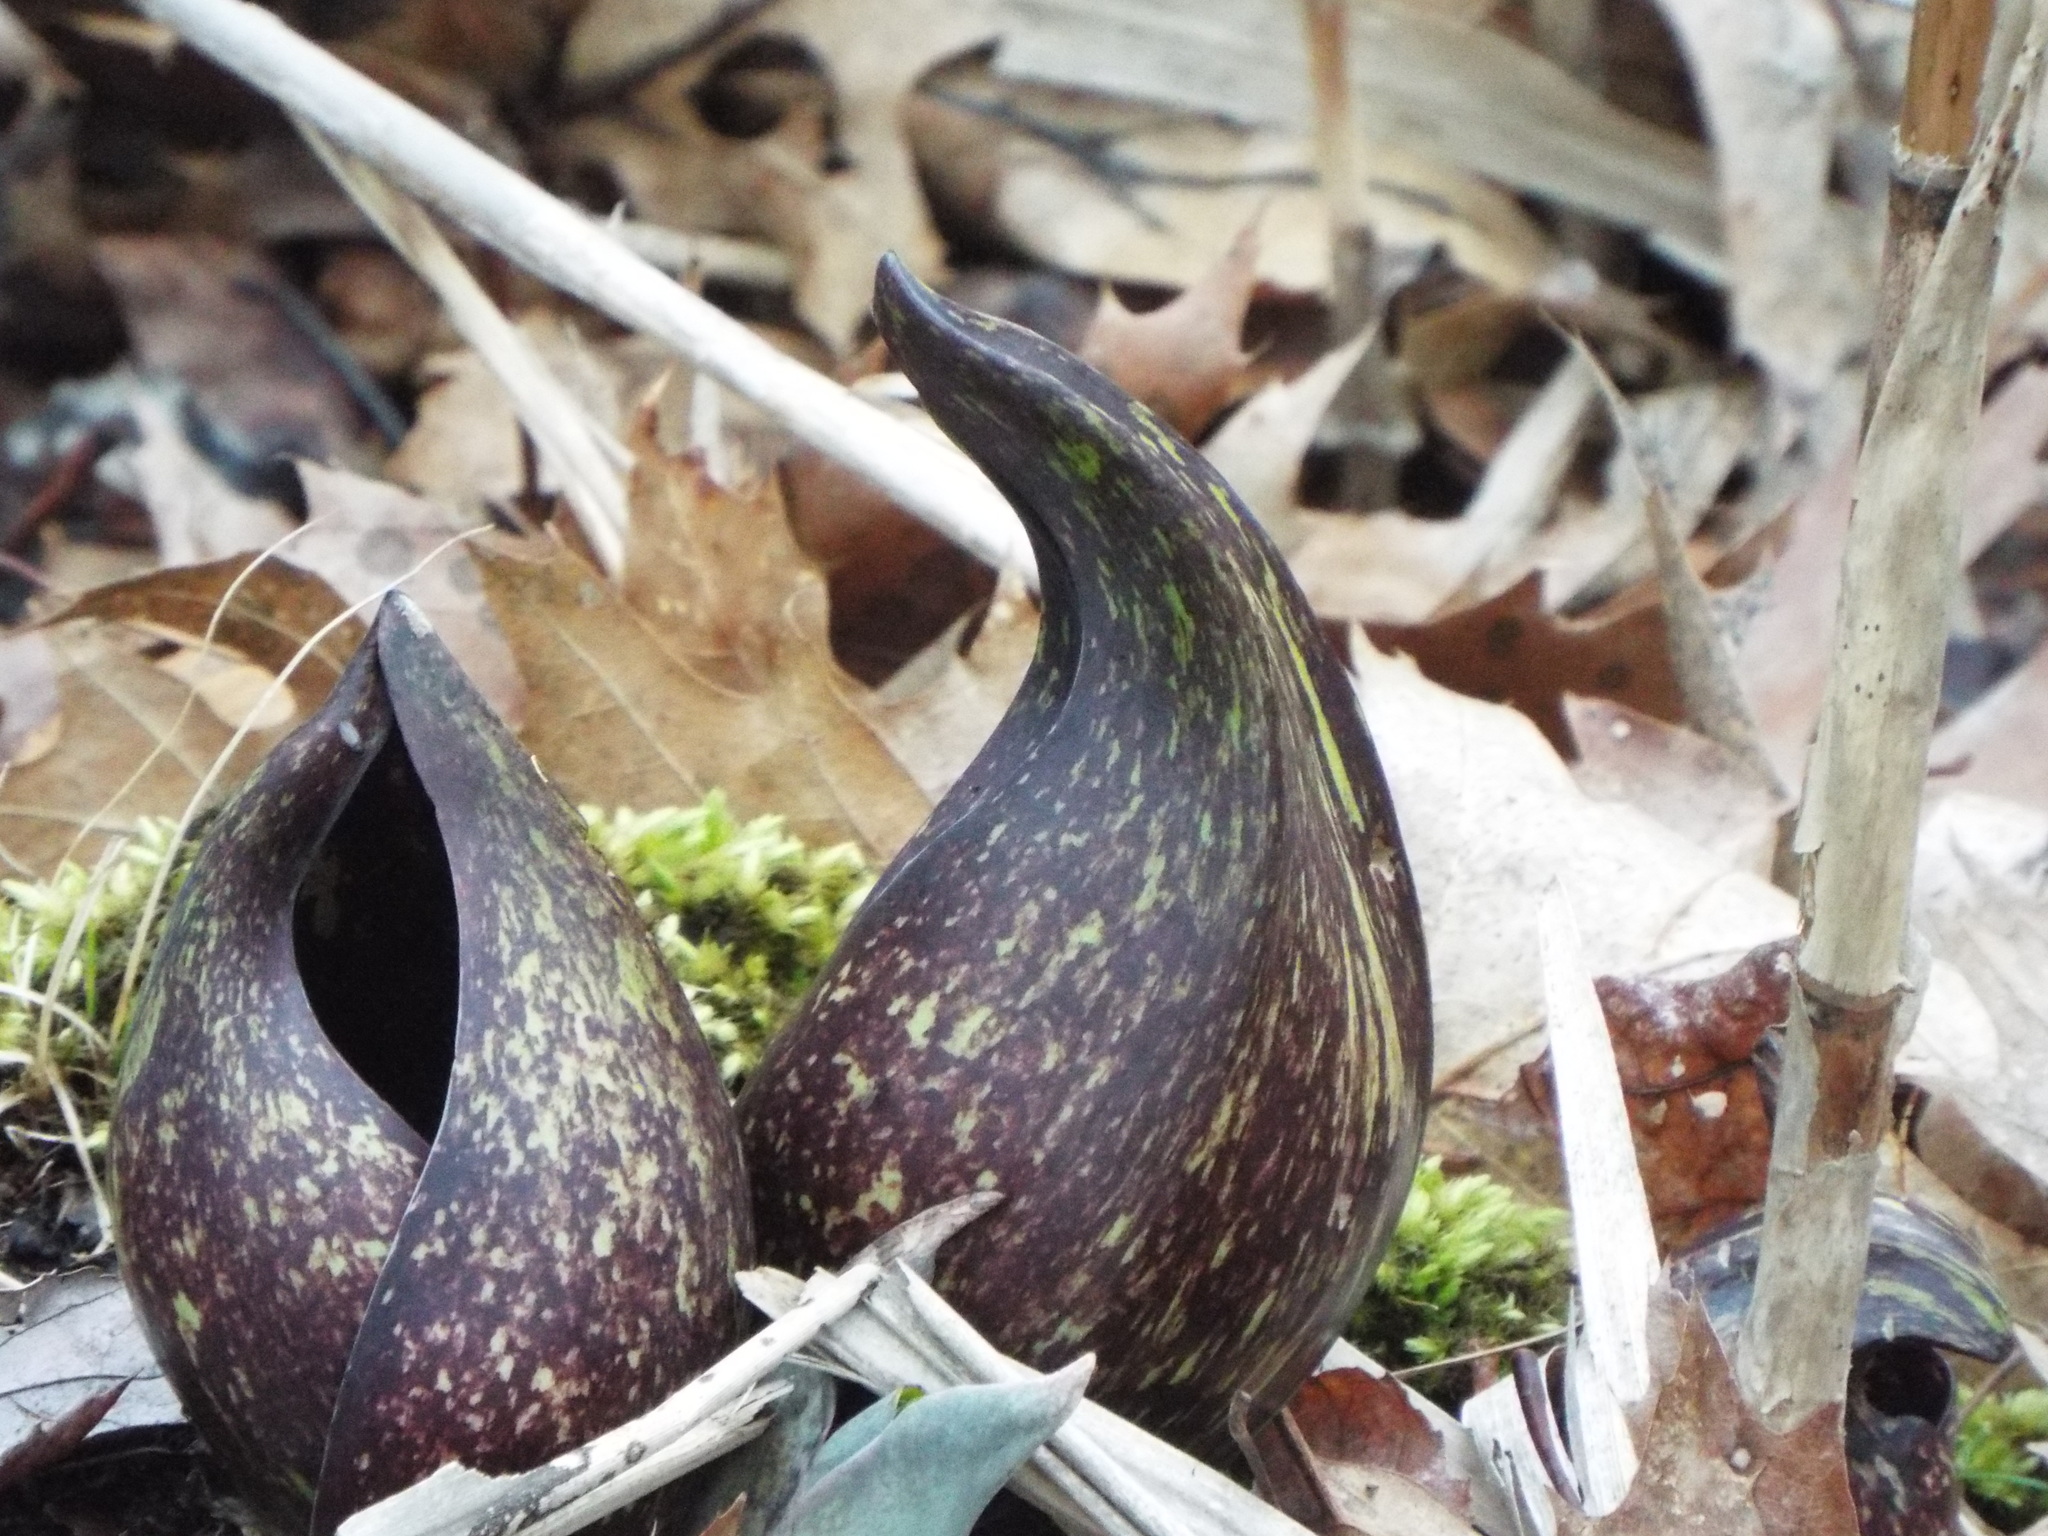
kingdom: Plantae
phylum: Tracheophyta
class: Liliopsida
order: Alismatales
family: Araceae
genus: Symplocarpus
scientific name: Symplocarpus foetidus
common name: Eastern skunk cabbage
